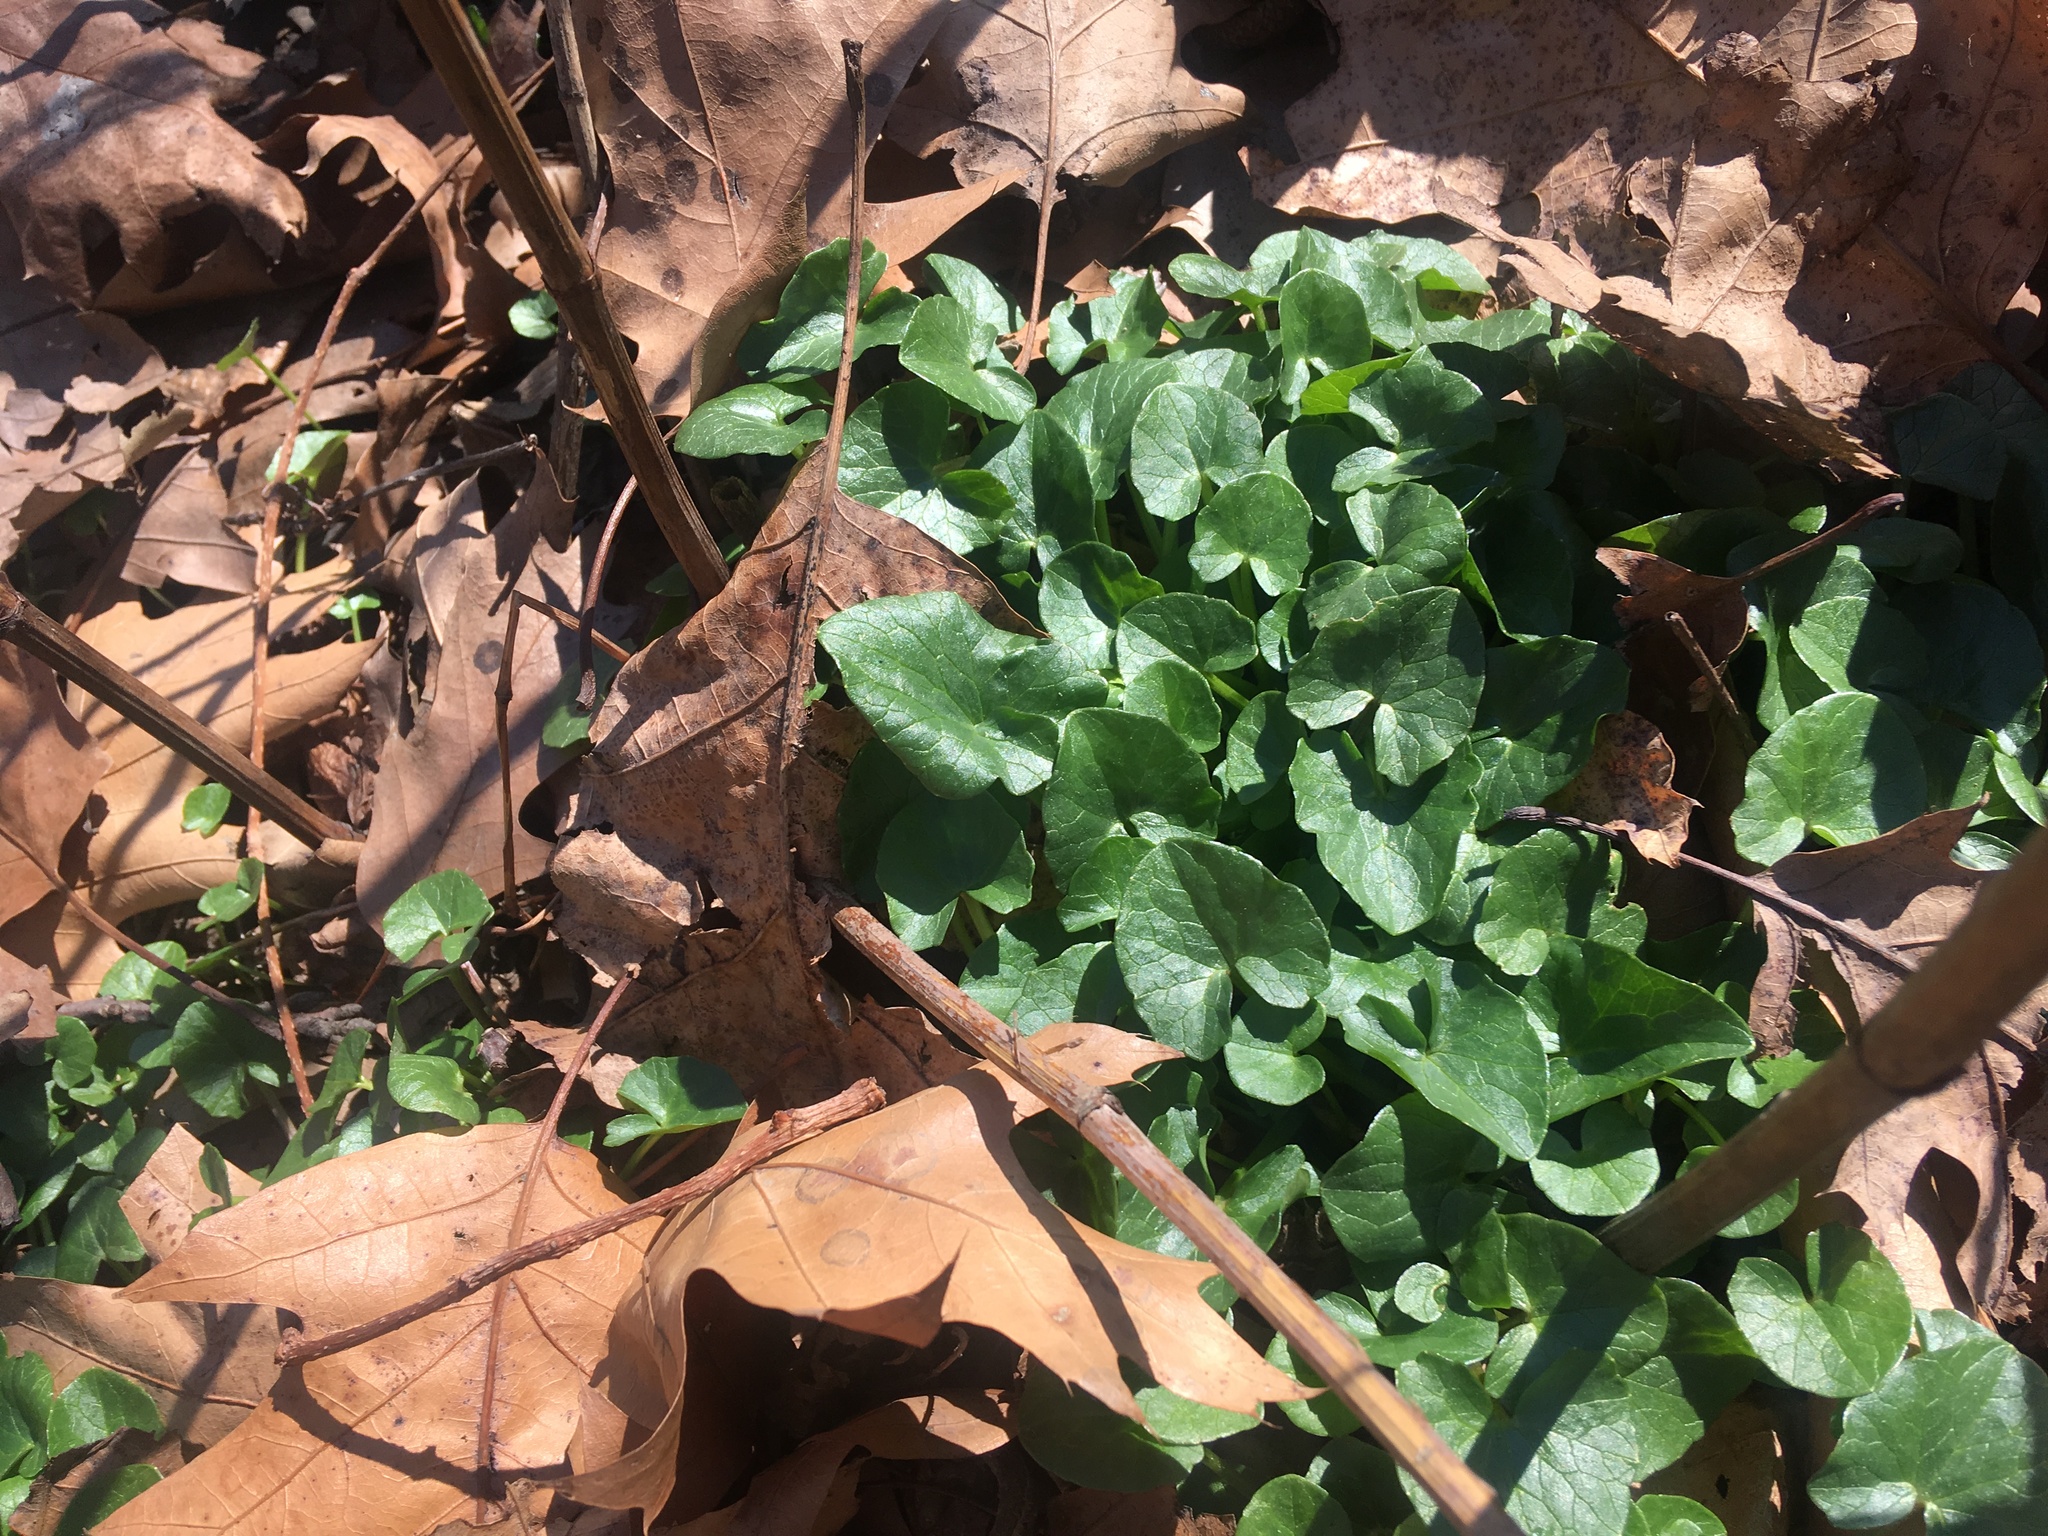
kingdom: Plantae
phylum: Tracheophyta
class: Magnoliopsida
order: Ranunculales
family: Ranunculaceae
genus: Ficaria
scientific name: Ficaria verna
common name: Lesser celandine
